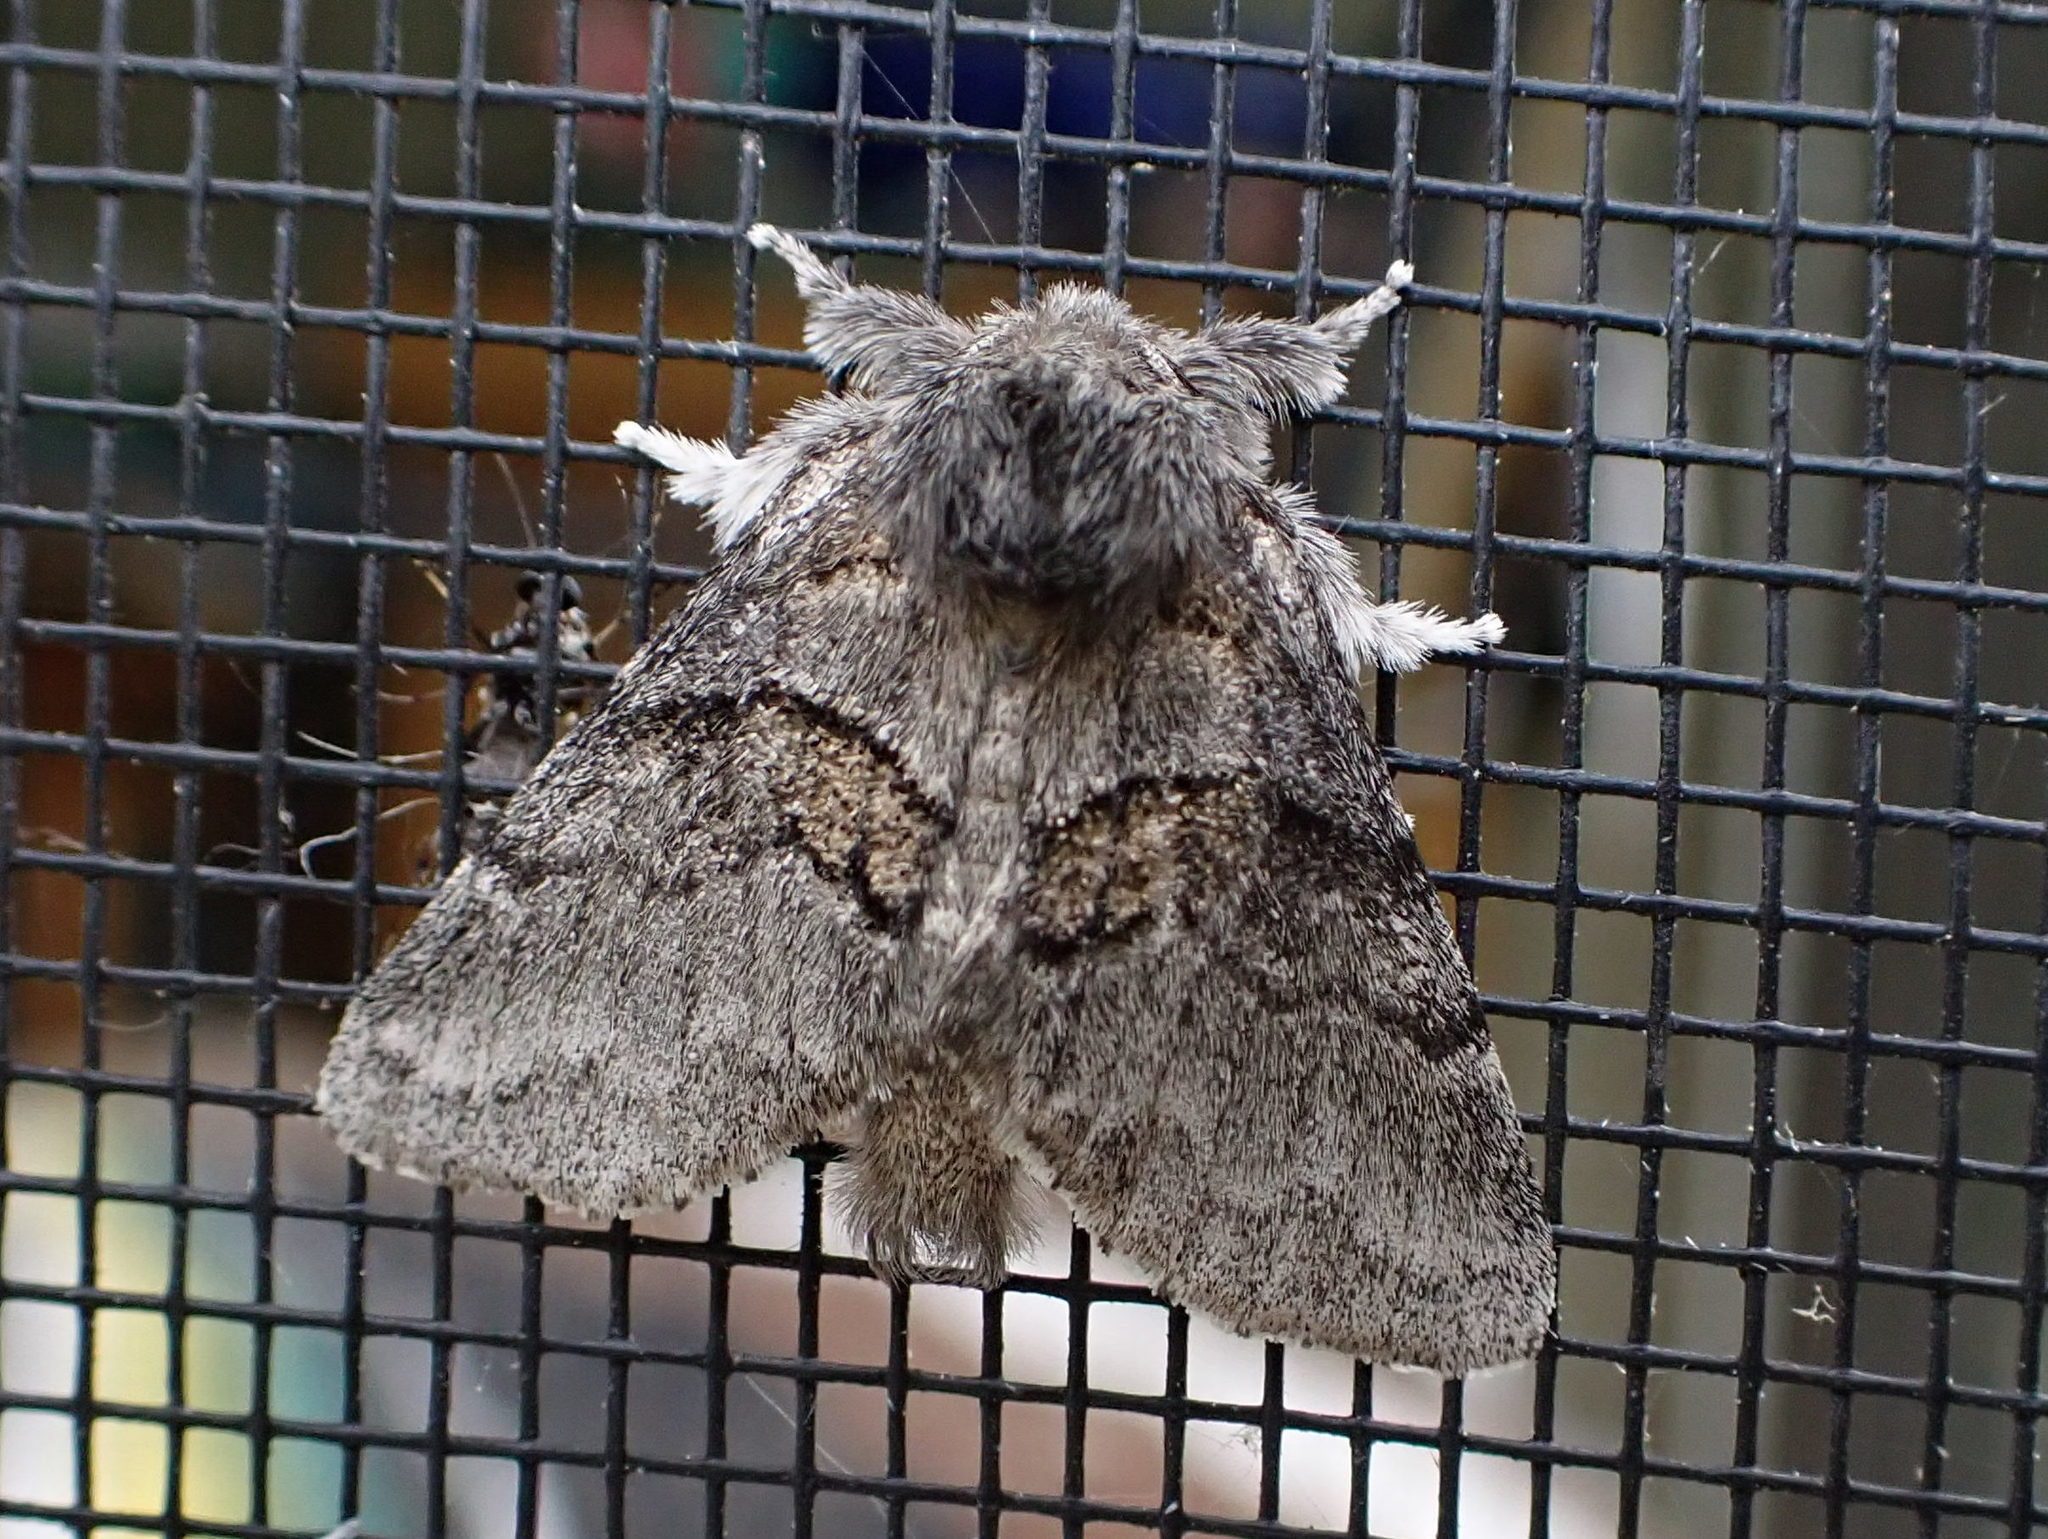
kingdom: Animalia
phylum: Arthropoda
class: Insecta
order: Lepidoptera
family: Notodontidae
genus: Gluphisia
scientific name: Gluphisia septentrionis
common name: Common gluphisia
